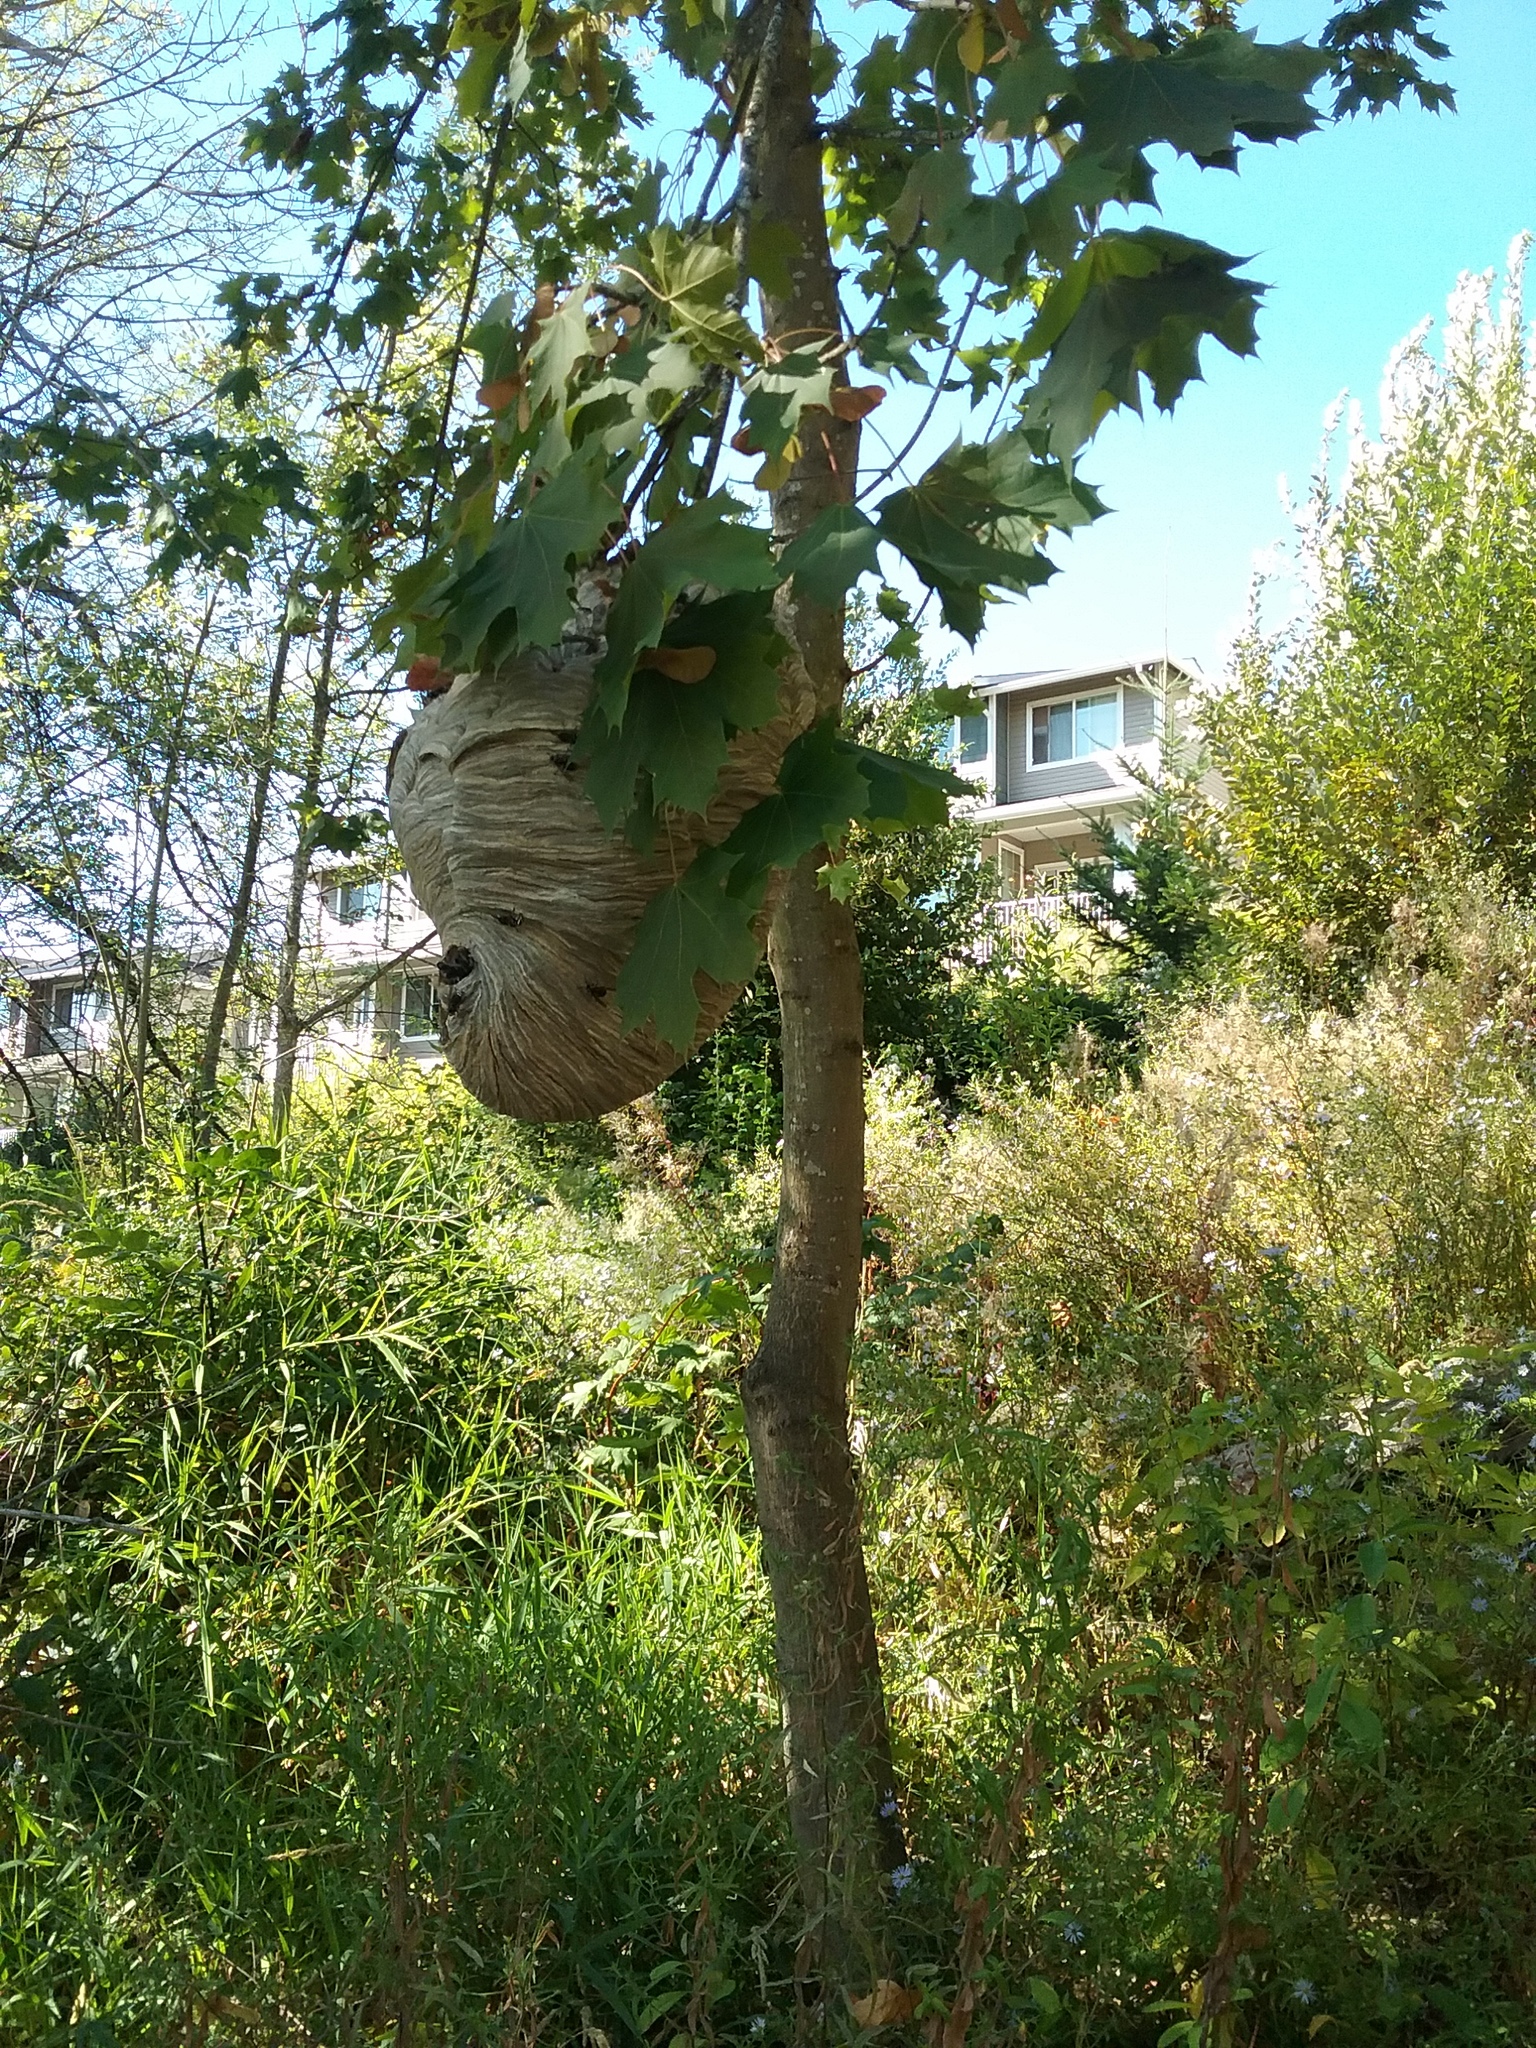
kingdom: Animalia
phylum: Arthropoda
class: Insecta
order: Hymenoptera
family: Vespidae
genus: Dolichovespula
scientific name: Dolichovespula maculata
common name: Bald-faced hornet
